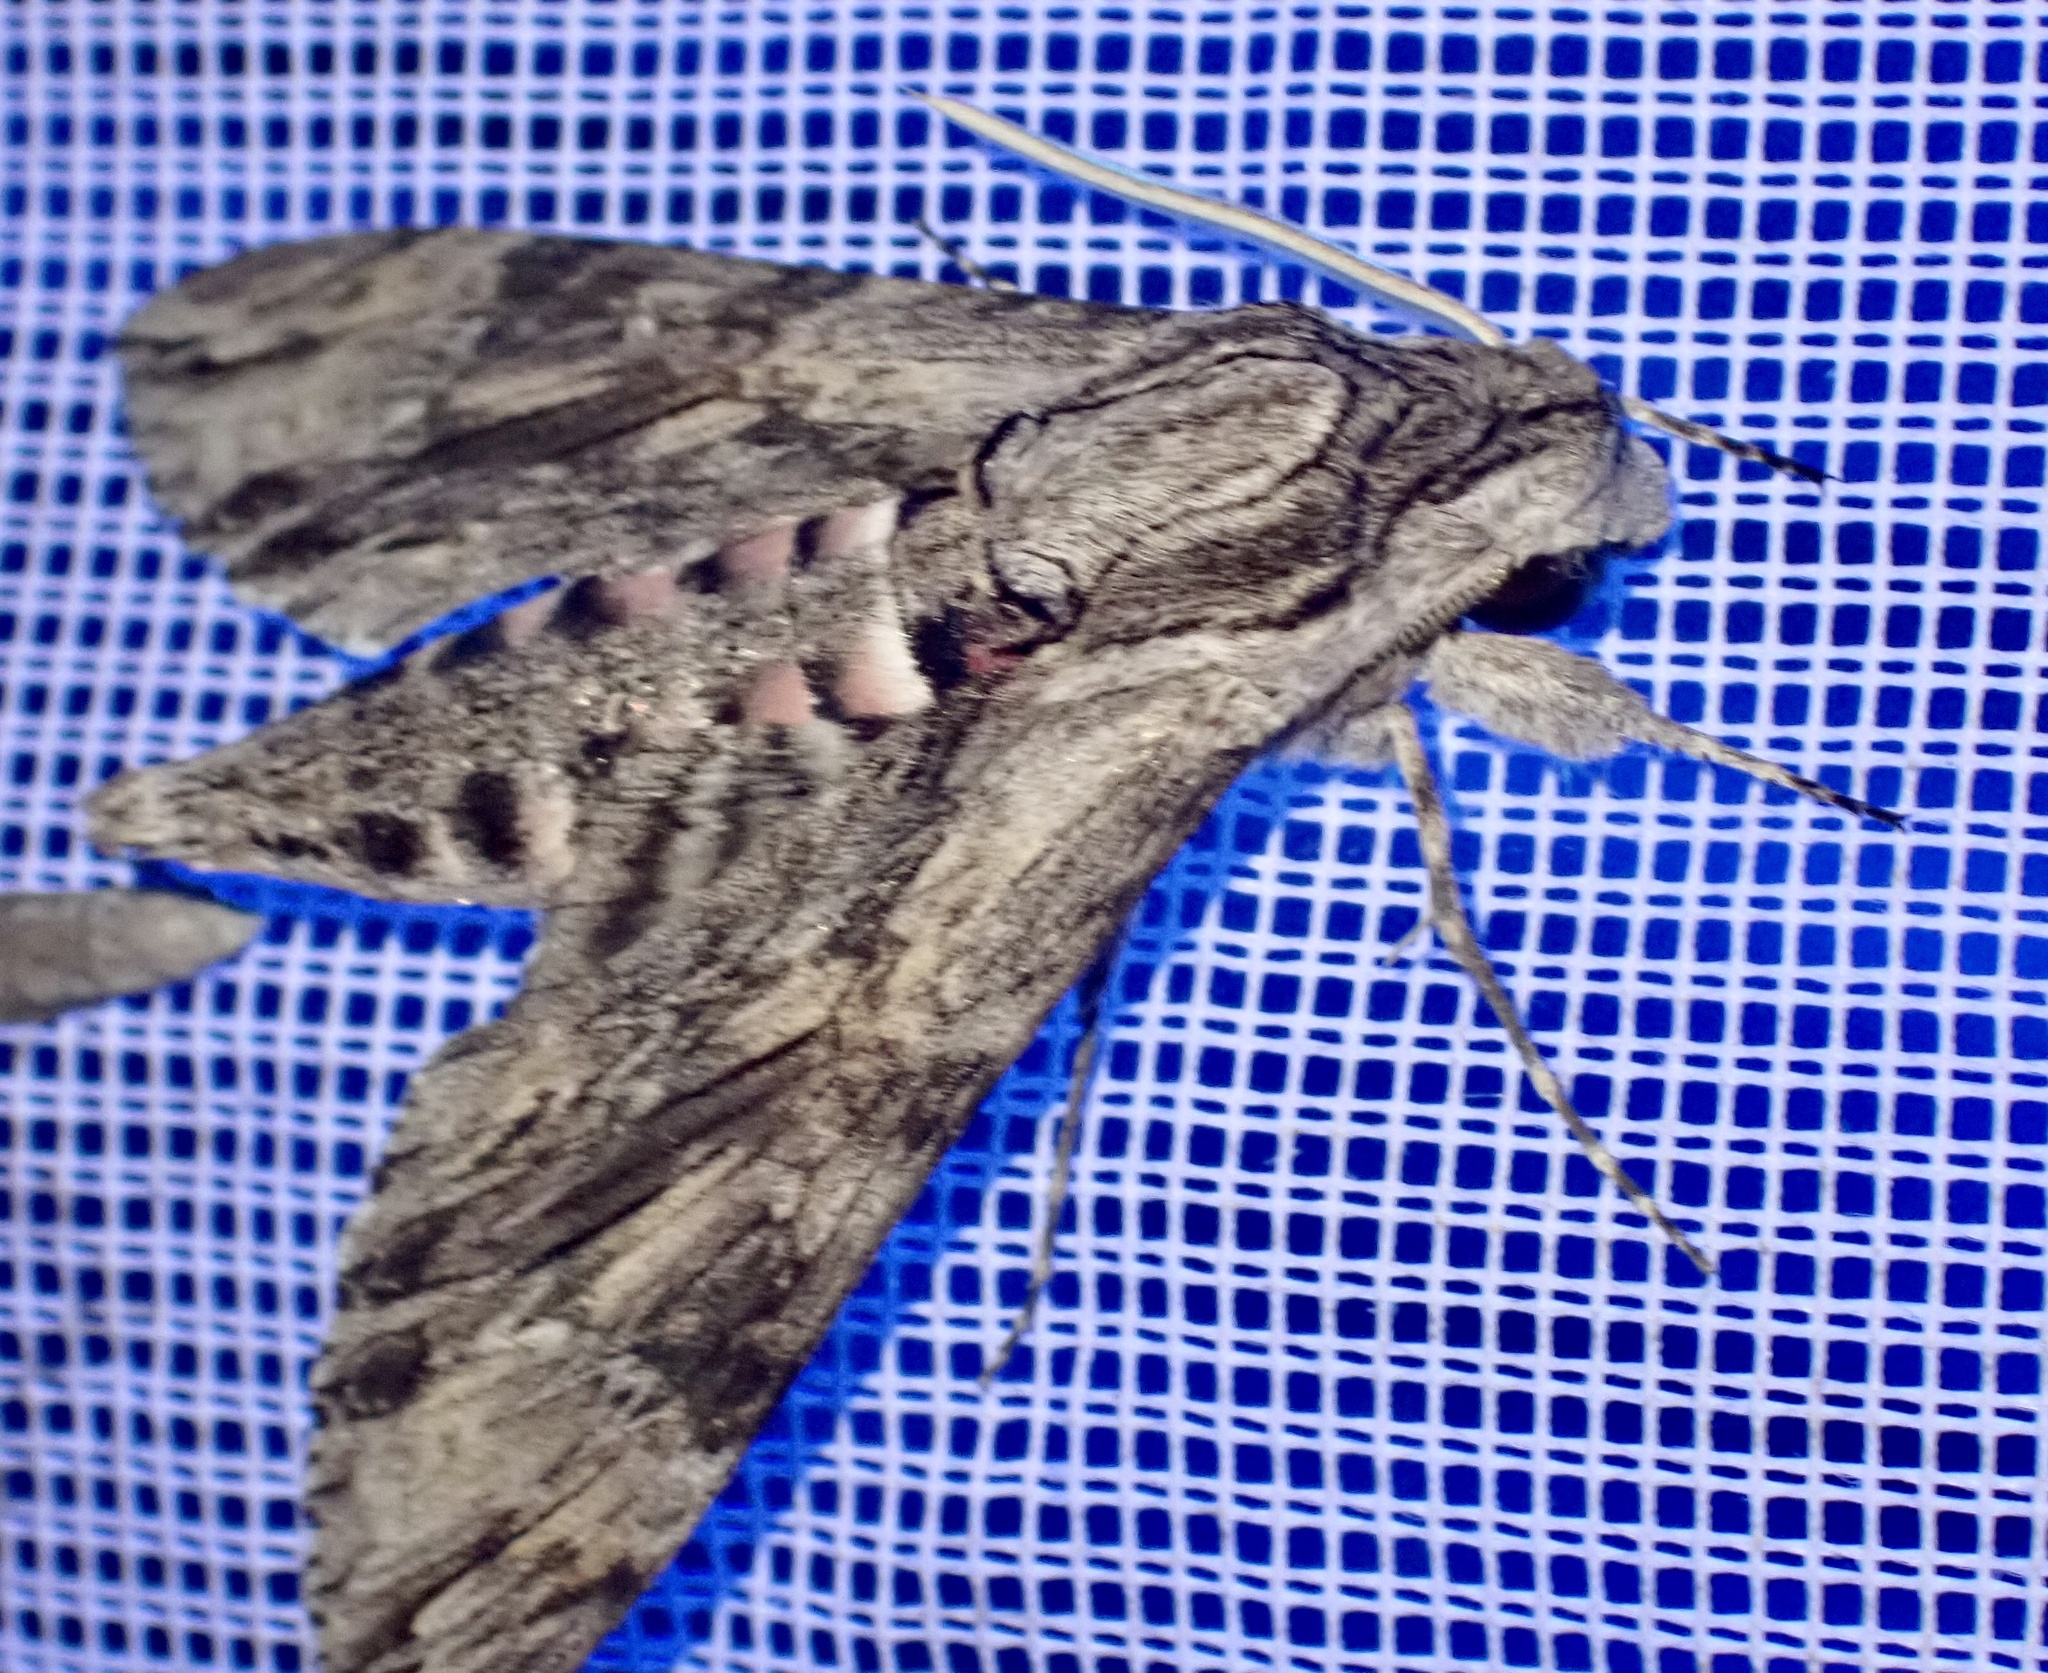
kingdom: Animalia
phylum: Arthropoda
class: Insecta
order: Lepidoptera
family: Sphingidae
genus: Agrius
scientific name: Agrius convolvuli
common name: Convolvulus hawkmoth
